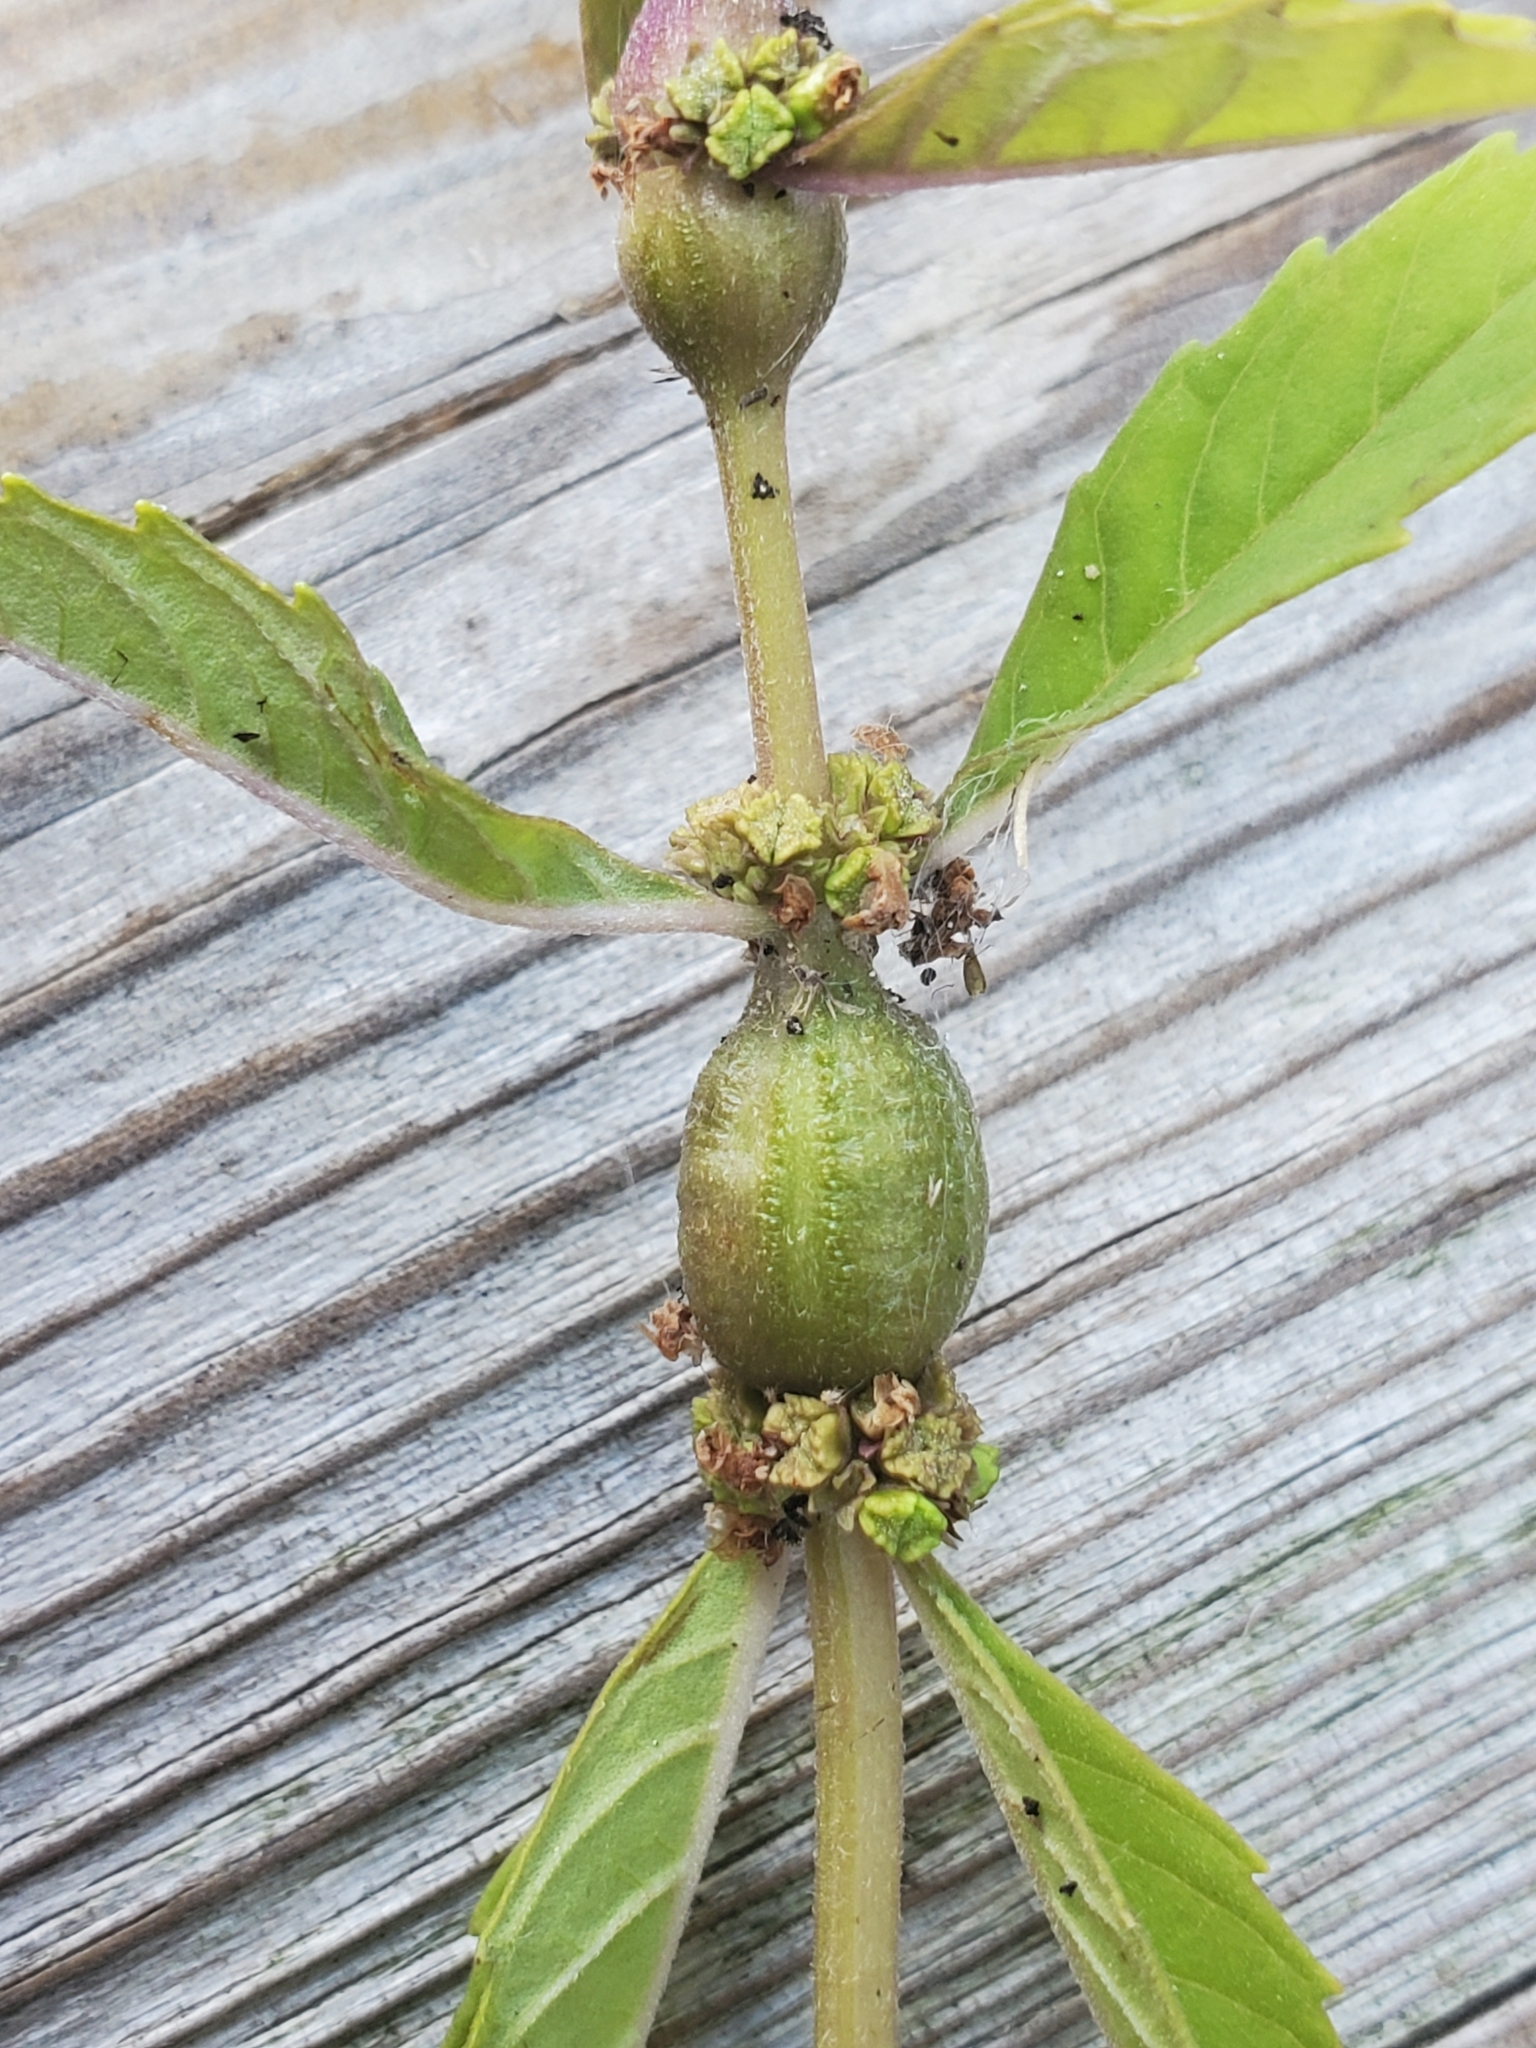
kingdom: Animalia
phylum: Arthropoda
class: Insecta
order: Diptera
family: Cecidomyiidae
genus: Neolasioptera
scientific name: Neolasioptera lycopi
